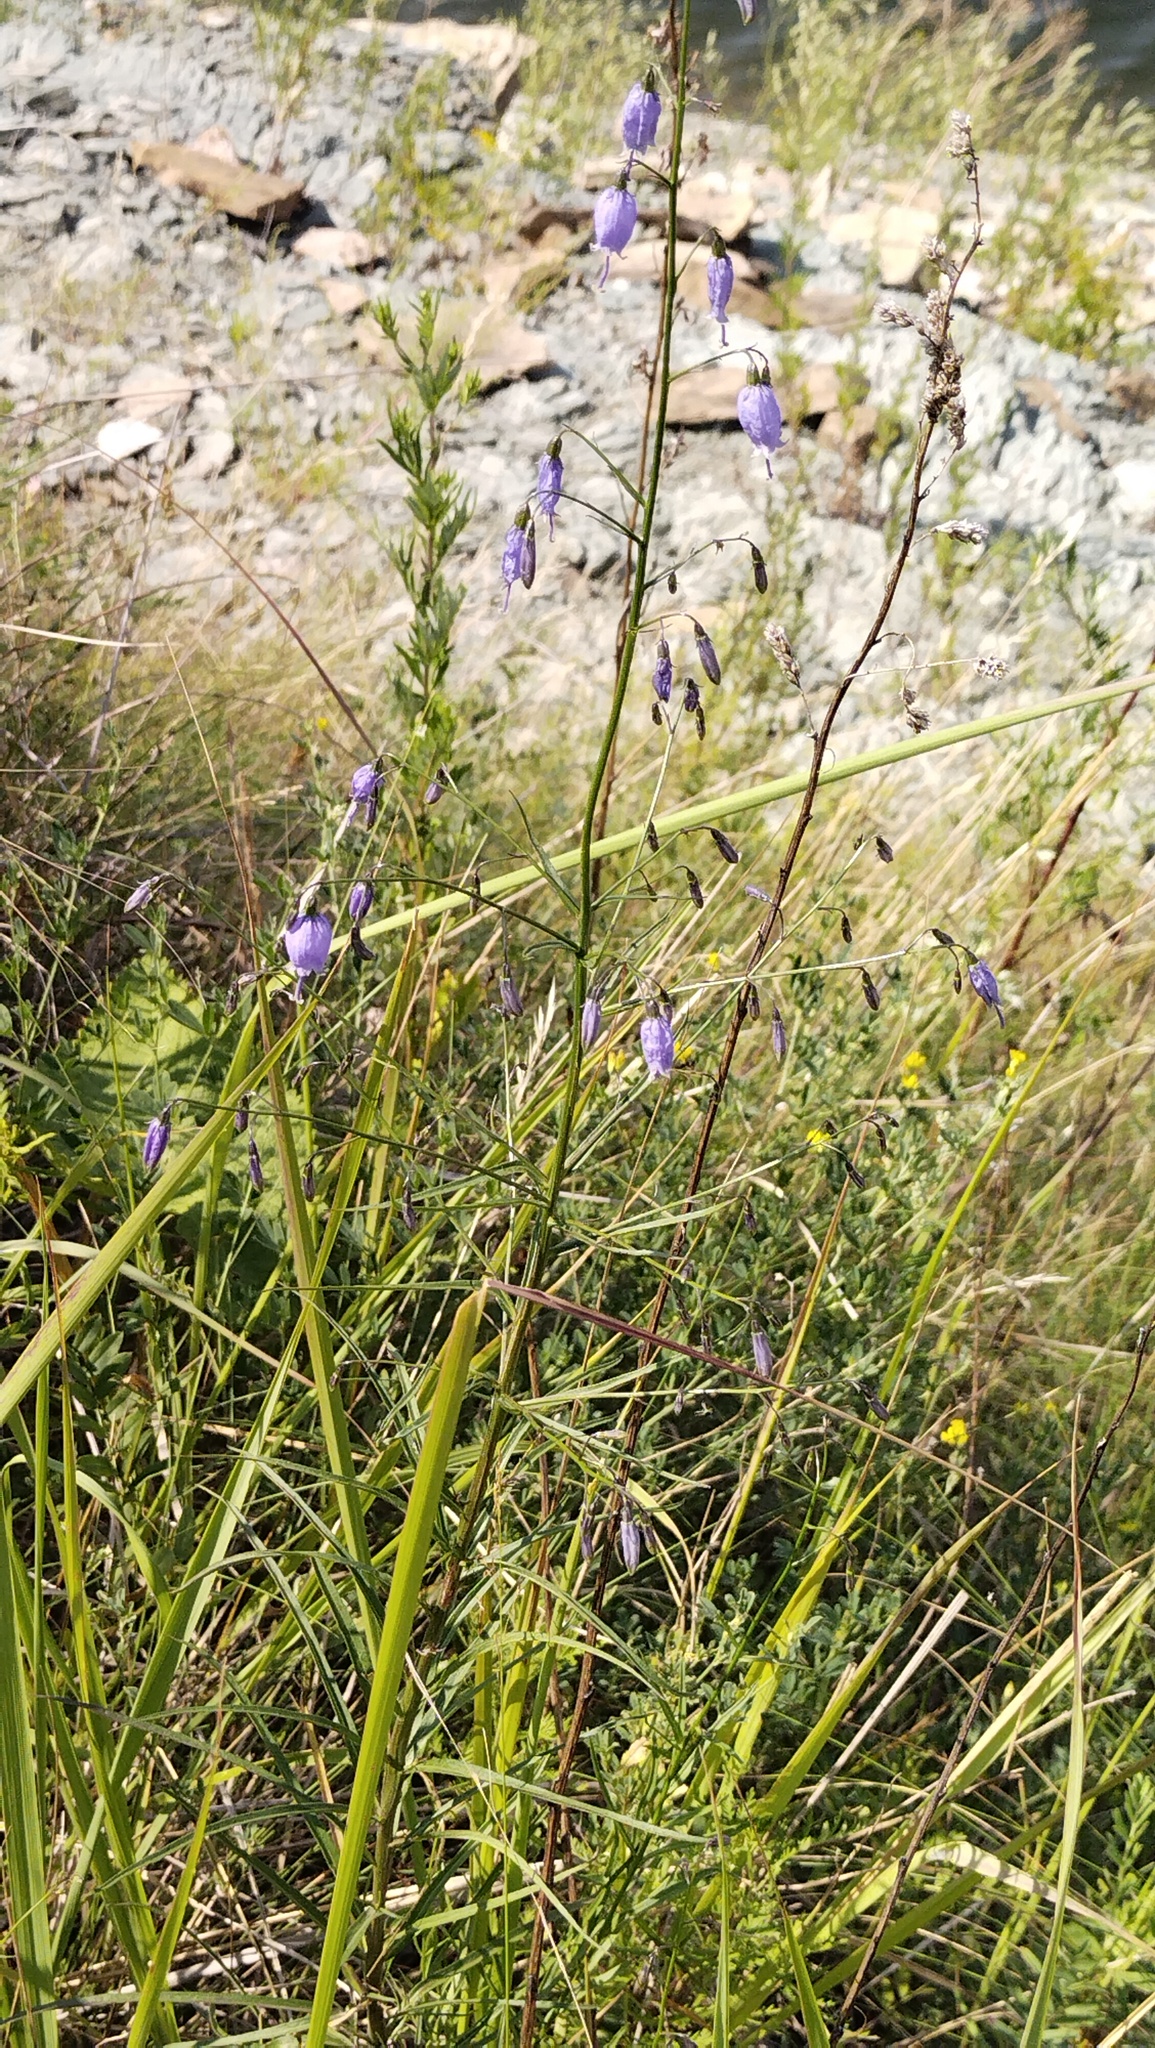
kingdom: Plantae
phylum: Tracheophyta
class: Magnoliopsida
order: Asterales
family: Campanulaceae
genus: Adenophora
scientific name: Adenophora stenanthina
